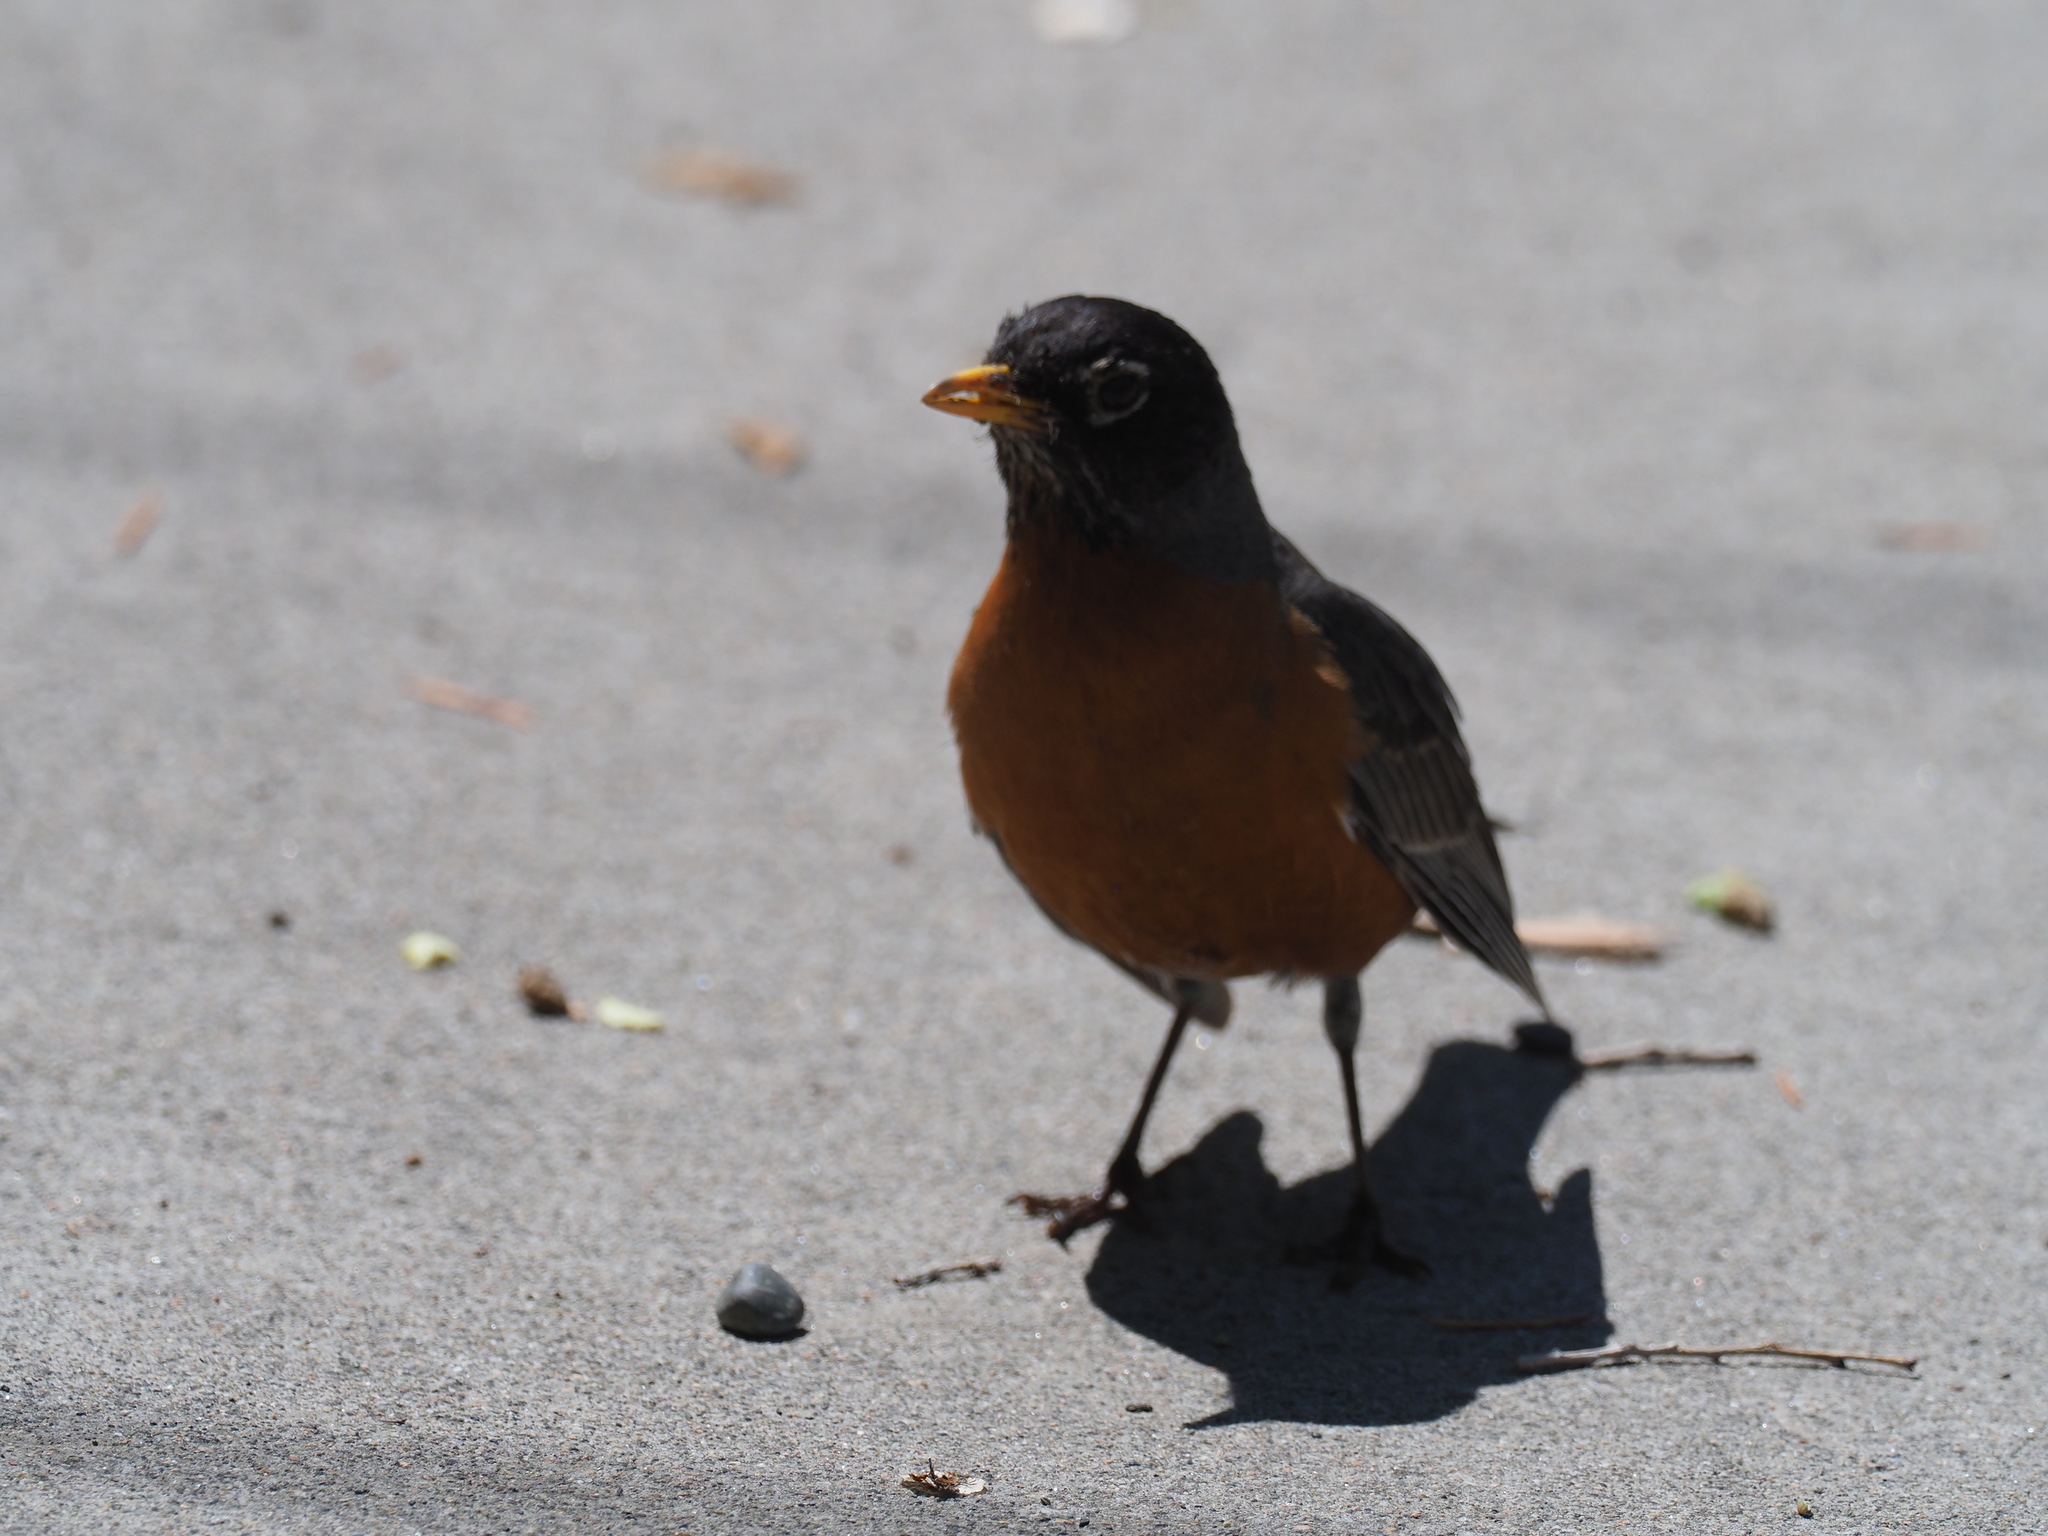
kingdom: Animalia
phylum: Chordata
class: Aves
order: Passeriformes
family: Turdidae
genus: Turdus
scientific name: Turdus migratorius
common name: American robin
